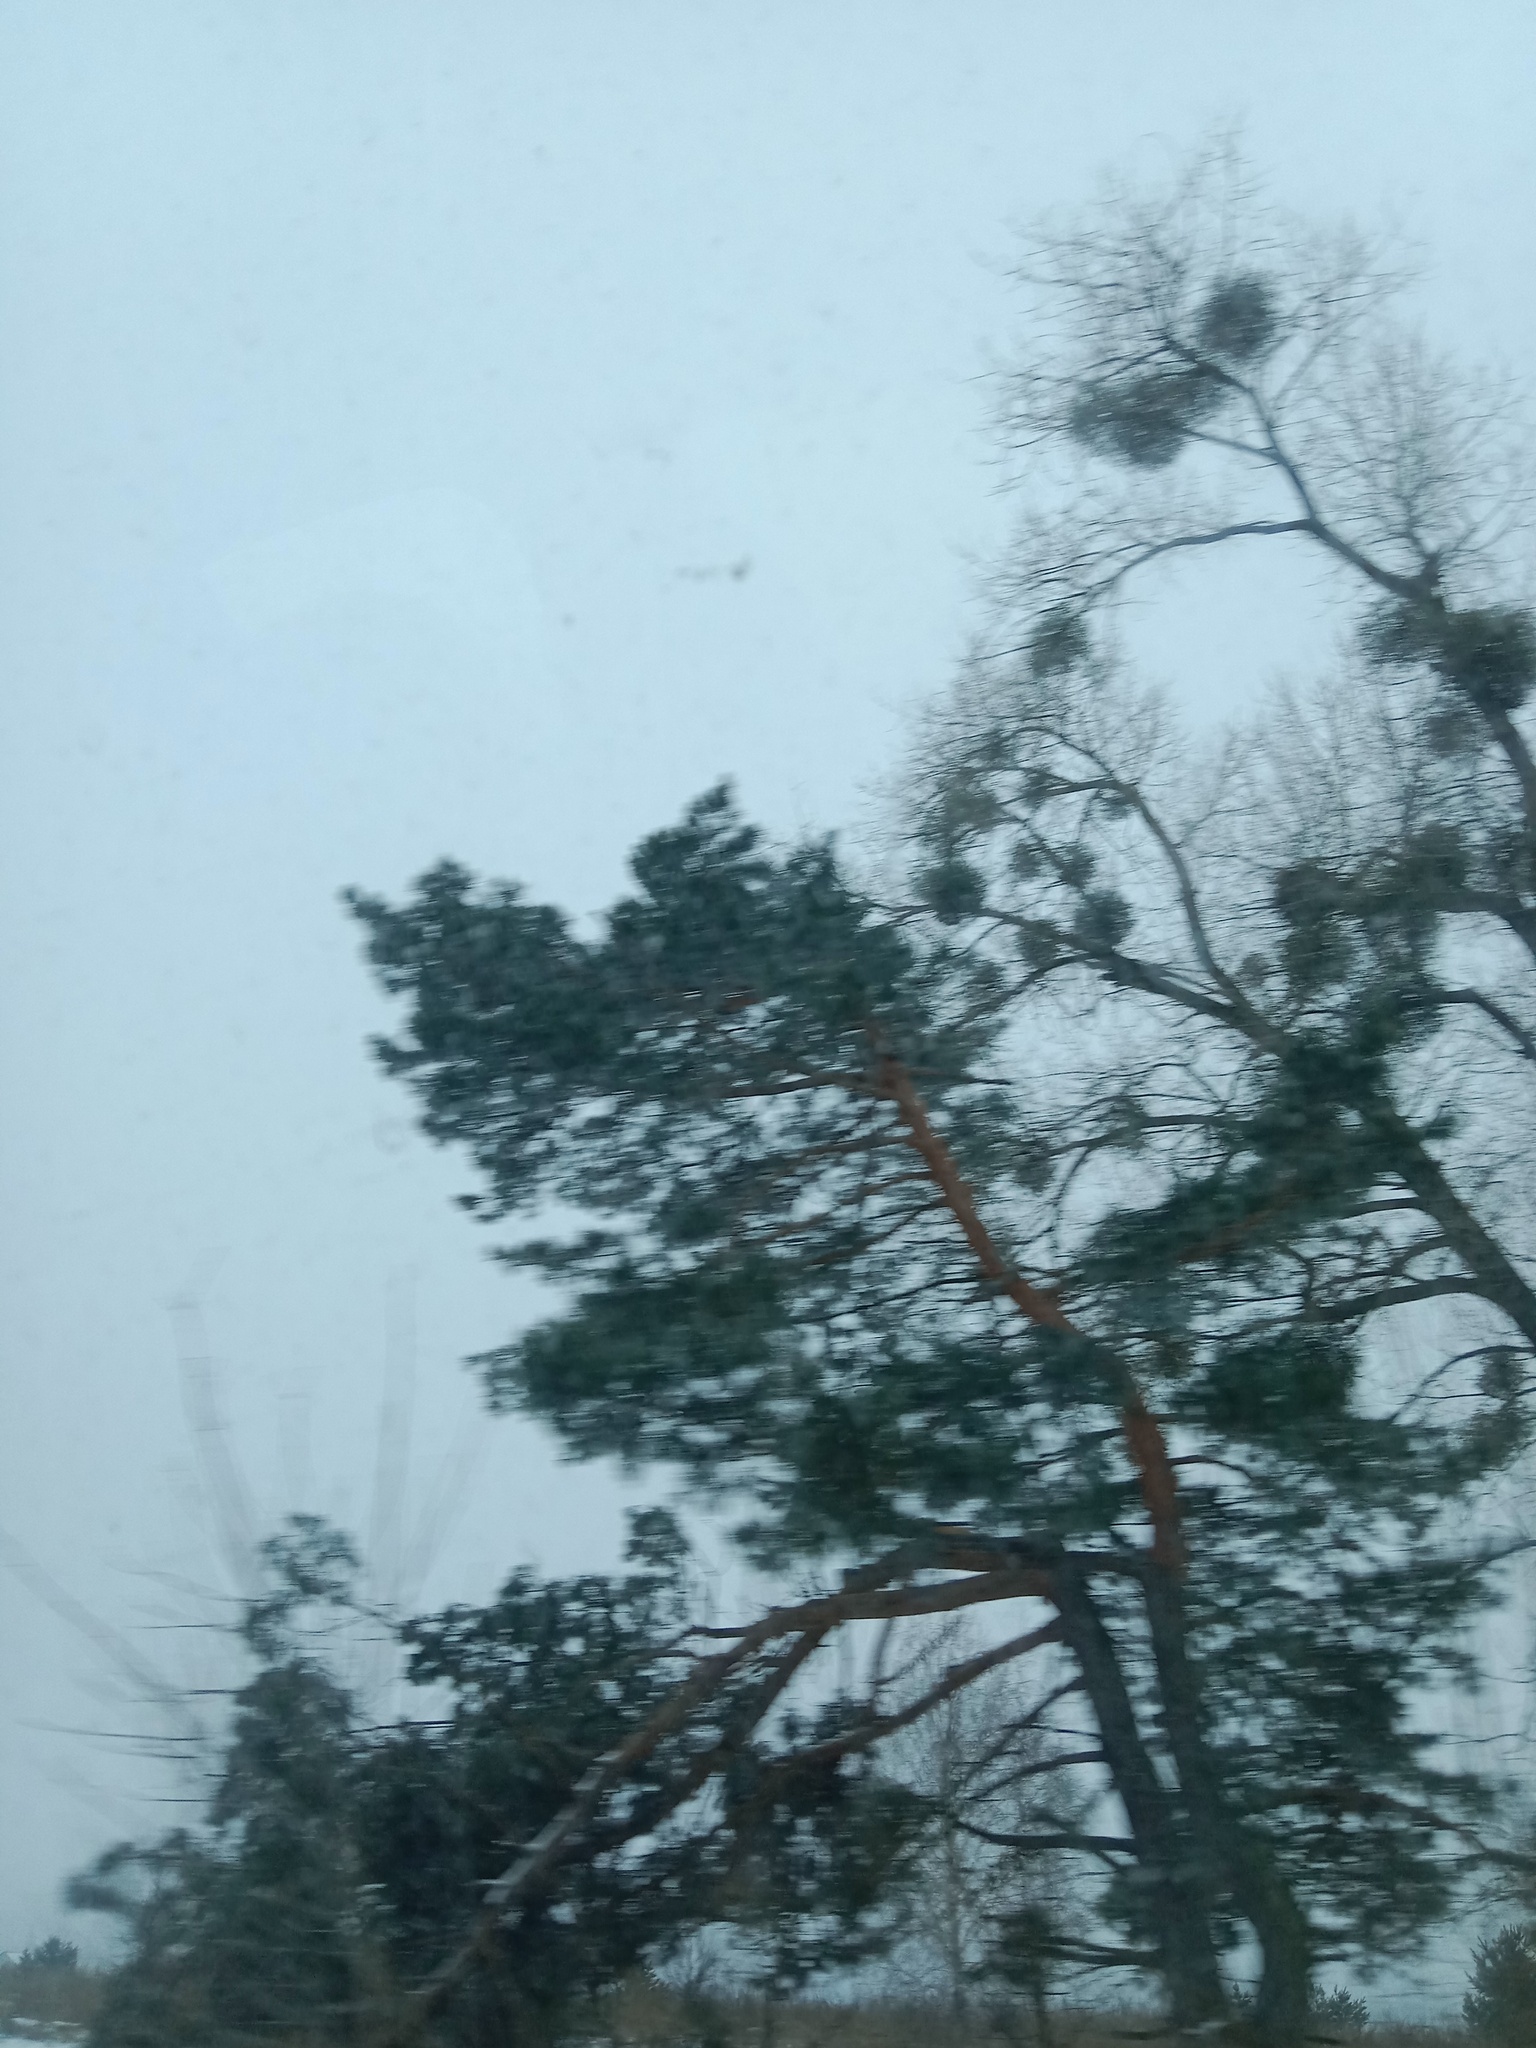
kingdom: Plantae
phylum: Tracheophyta
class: Magnoliopsida
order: Santalales
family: Viscaceae
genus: Viscum
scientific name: Viscum album
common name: Mistletoe
